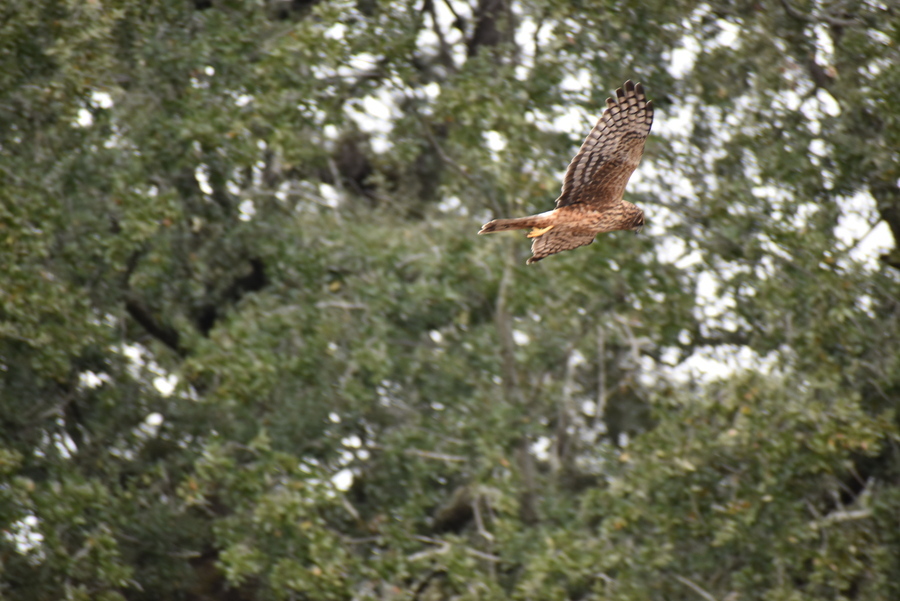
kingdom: Animalia
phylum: Chordata
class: Aves
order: Accipitriformes
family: Accipitridae
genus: Circus
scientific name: Circus cyaneus
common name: Hen harrier
